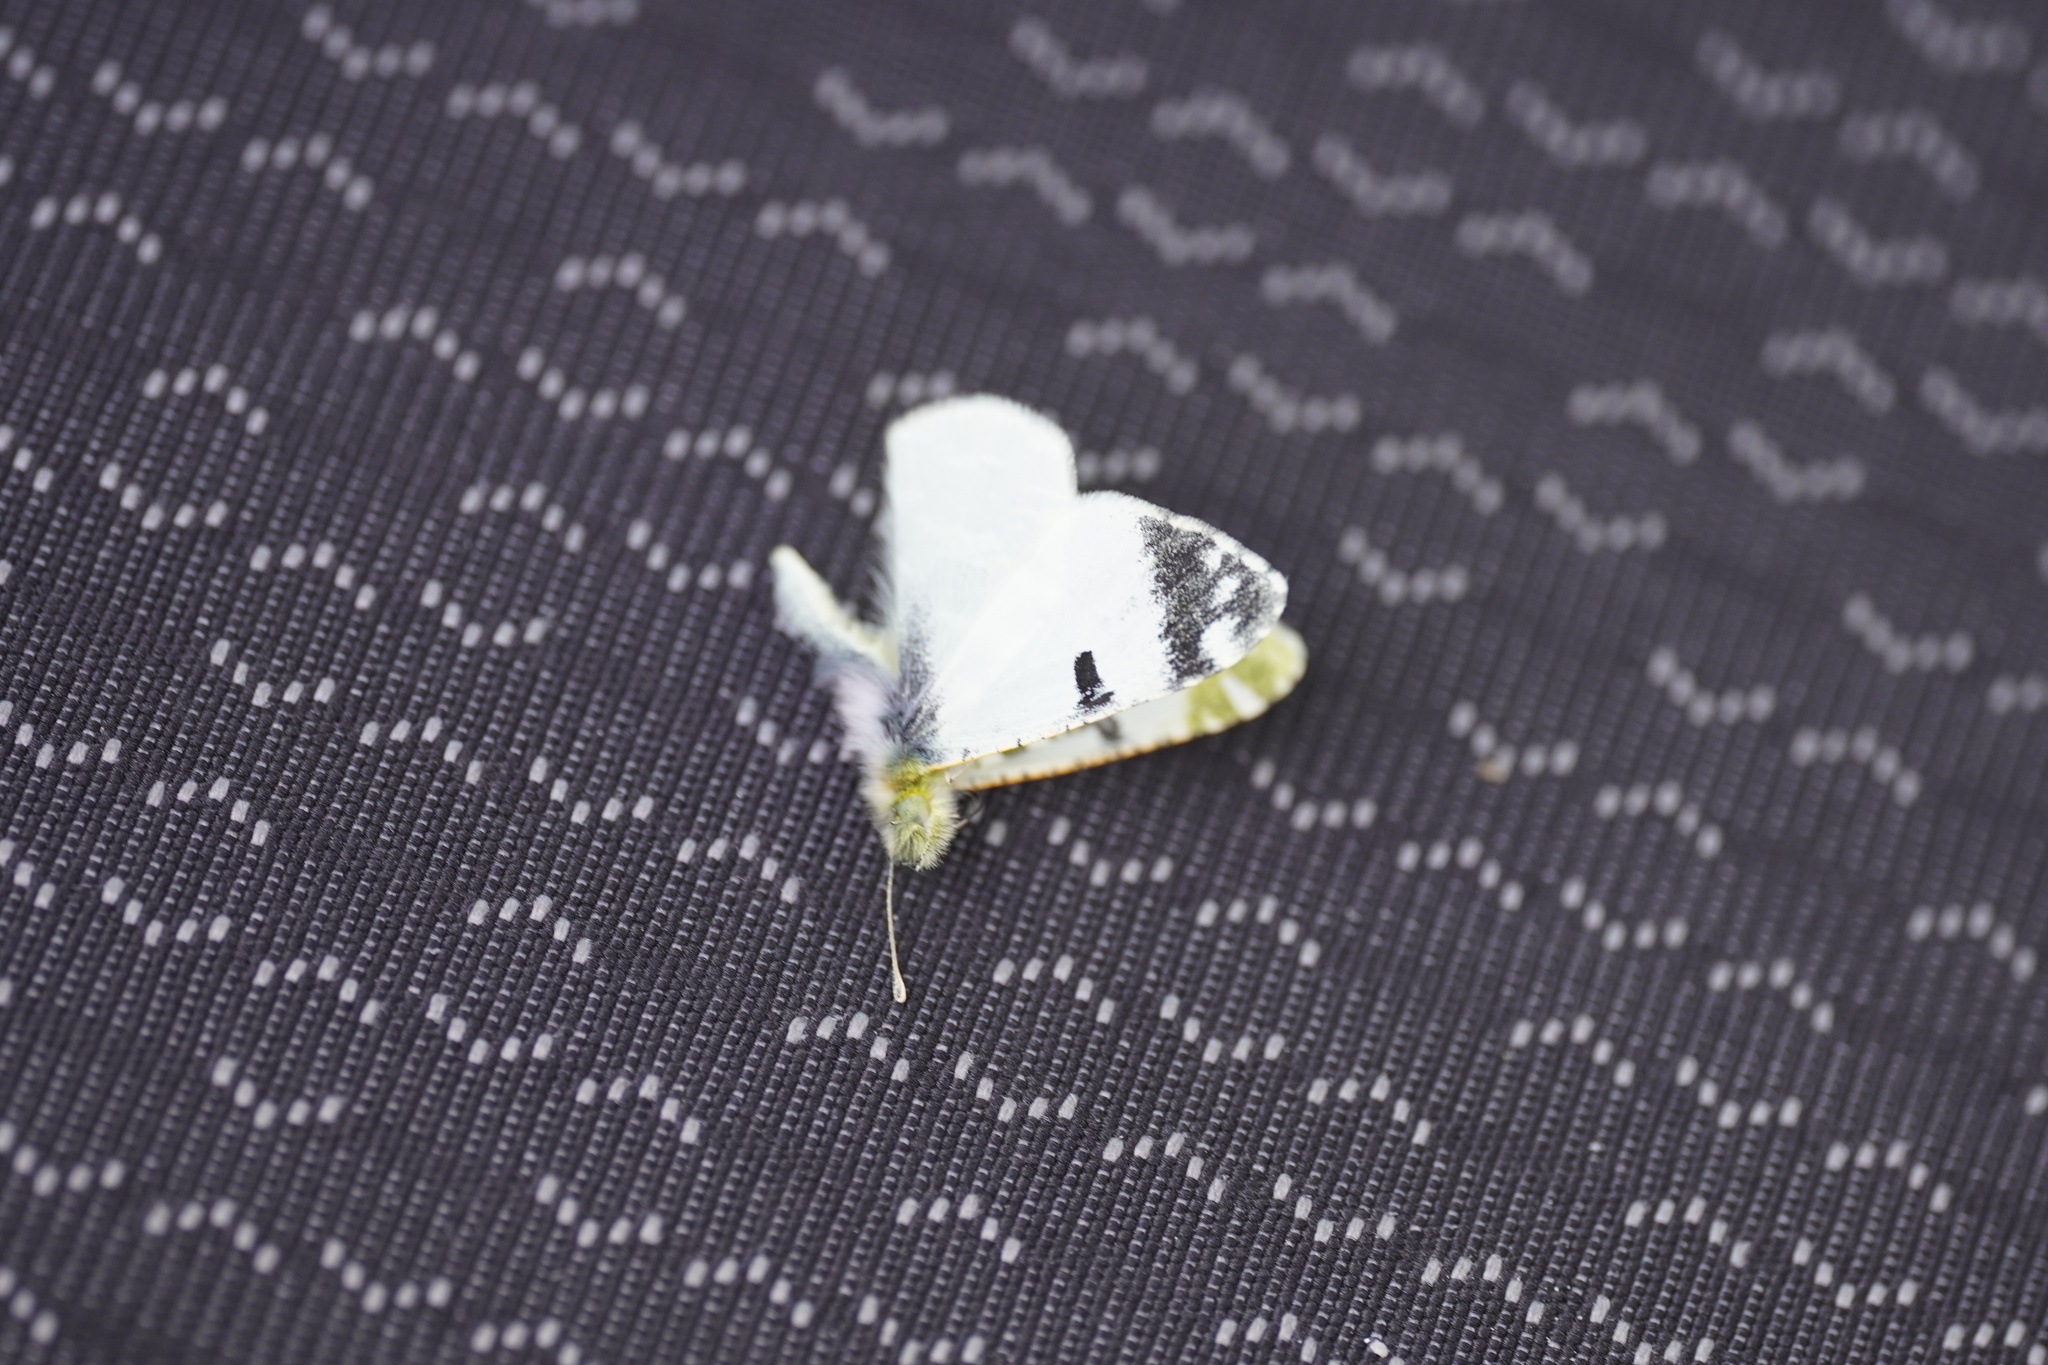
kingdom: Animalia
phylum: Arthropoda
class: Insecta
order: Lepidoptera
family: Pieridae
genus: Euchloe
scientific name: Euchloe hesperidum
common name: Canary green-striped white
